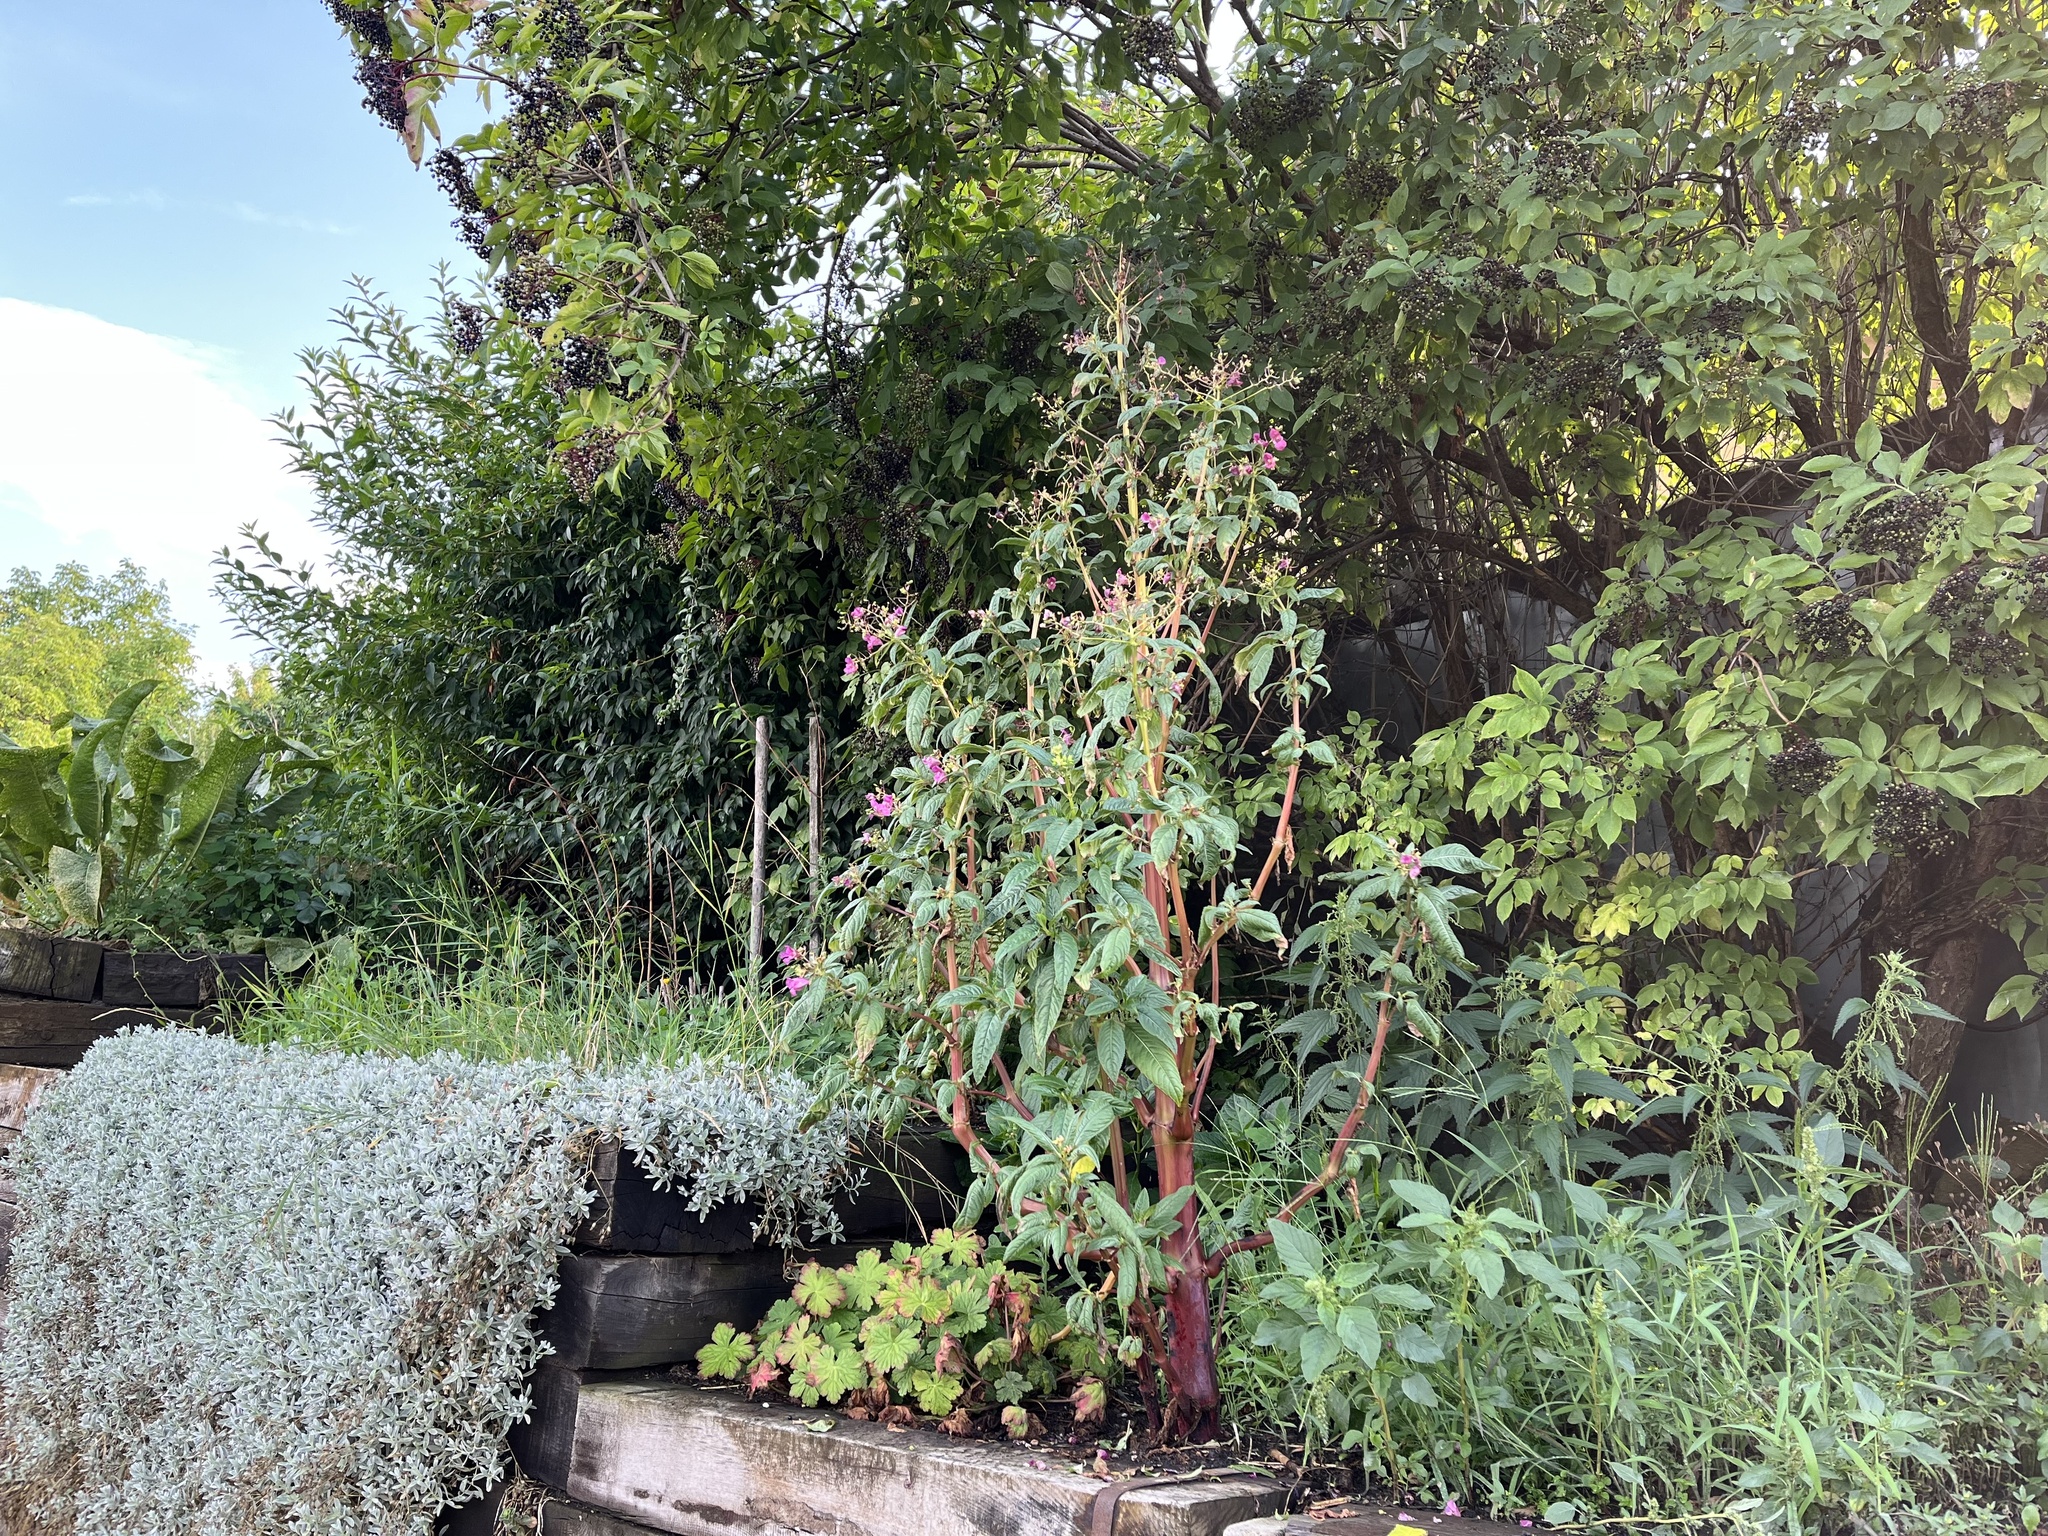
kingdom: Plantae
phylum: Tracheophyta
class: Magnoliopsida
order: Ericales
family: Balsaminaceae
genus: Impatiens
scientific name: Impatiens glandulifera
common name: Himalayan balsam
